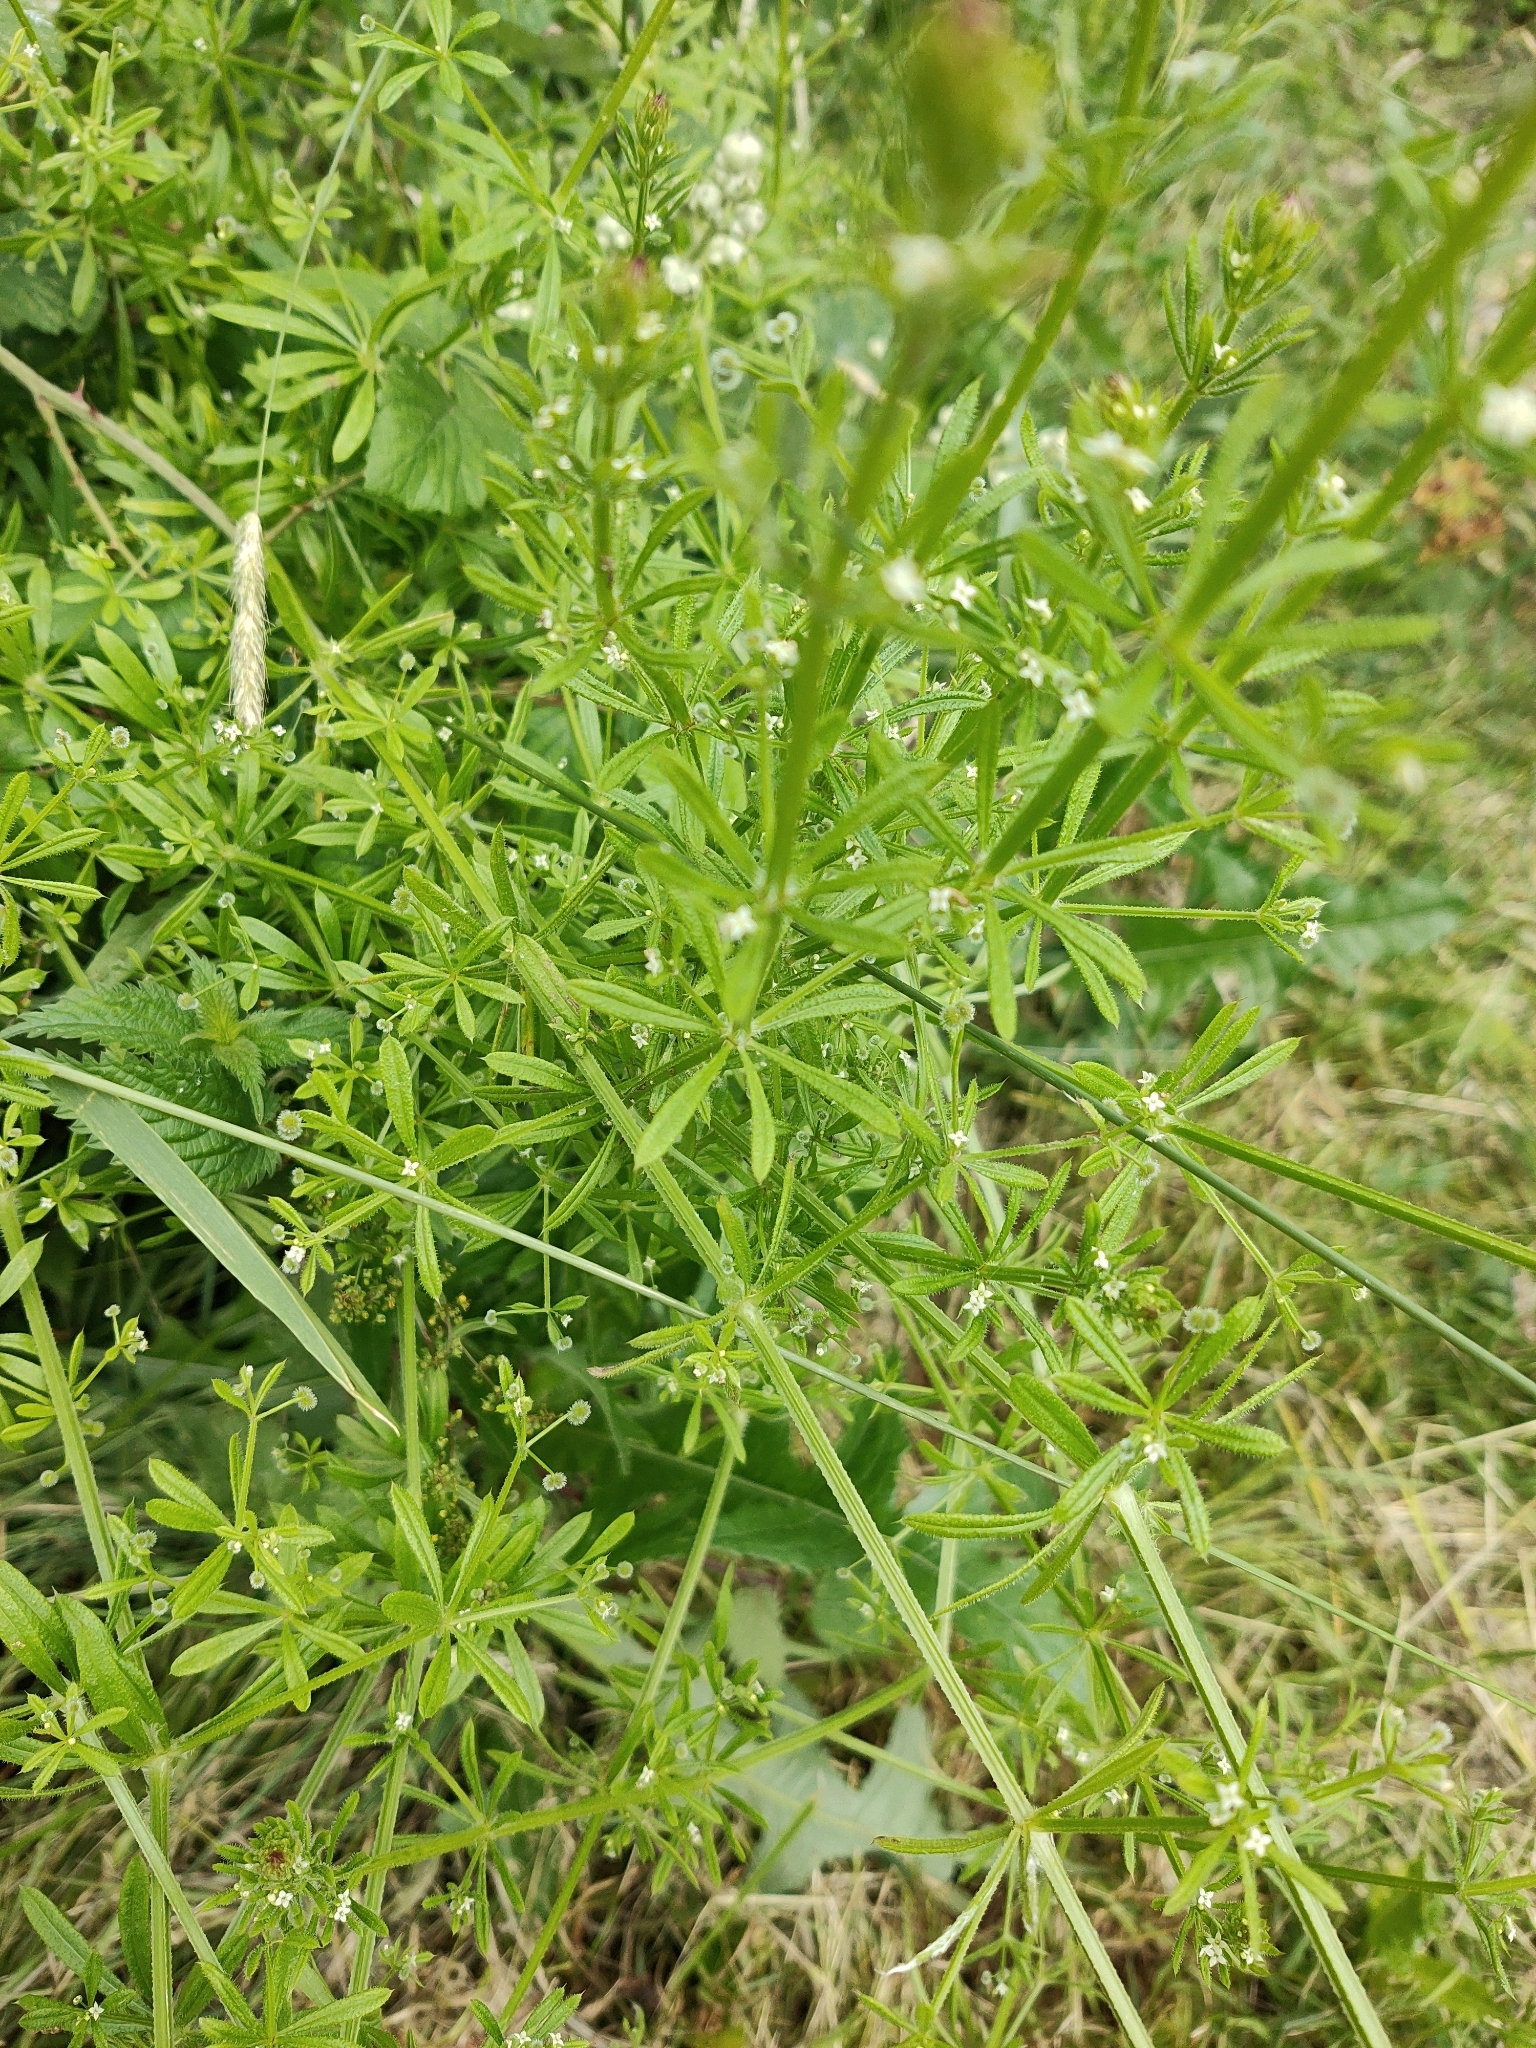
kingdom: Plantae
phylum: Tracheophyta
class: Magnoliopsida
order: Gentianales
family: Rubiaceae
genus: Galium
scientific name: Galium aparine
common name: Cleavers
